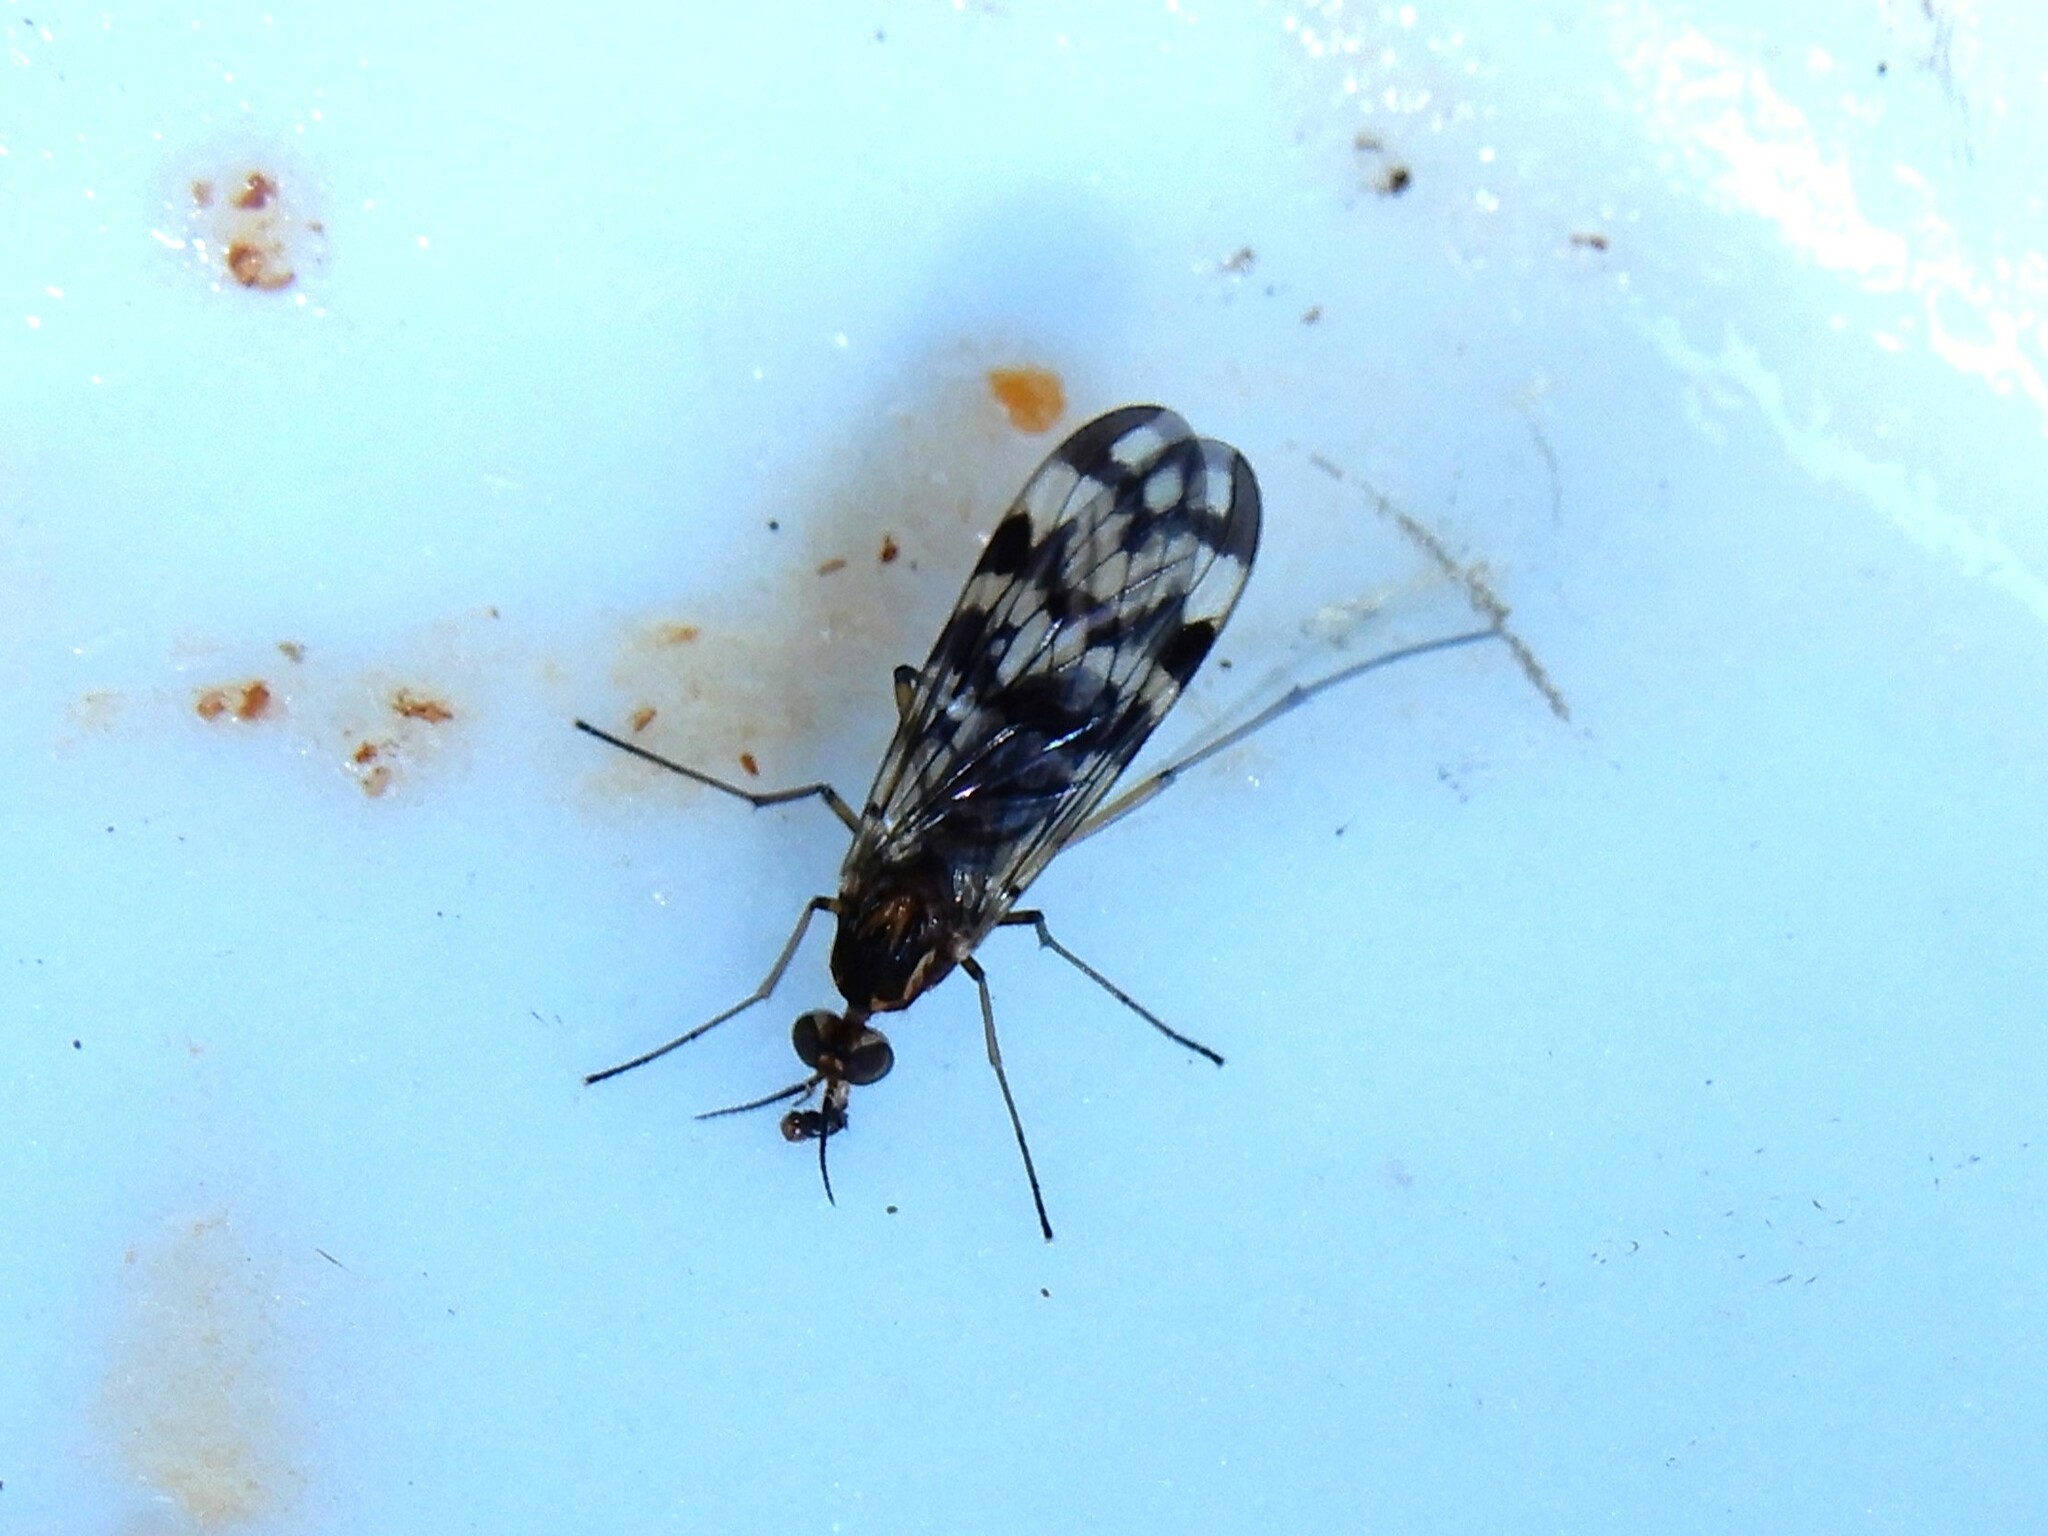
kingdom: Animalia
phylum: Arthropoda
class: Insecta
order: Diptera
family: Anisopodidae
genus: Sylvicola
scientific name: Sylvicola dubius
